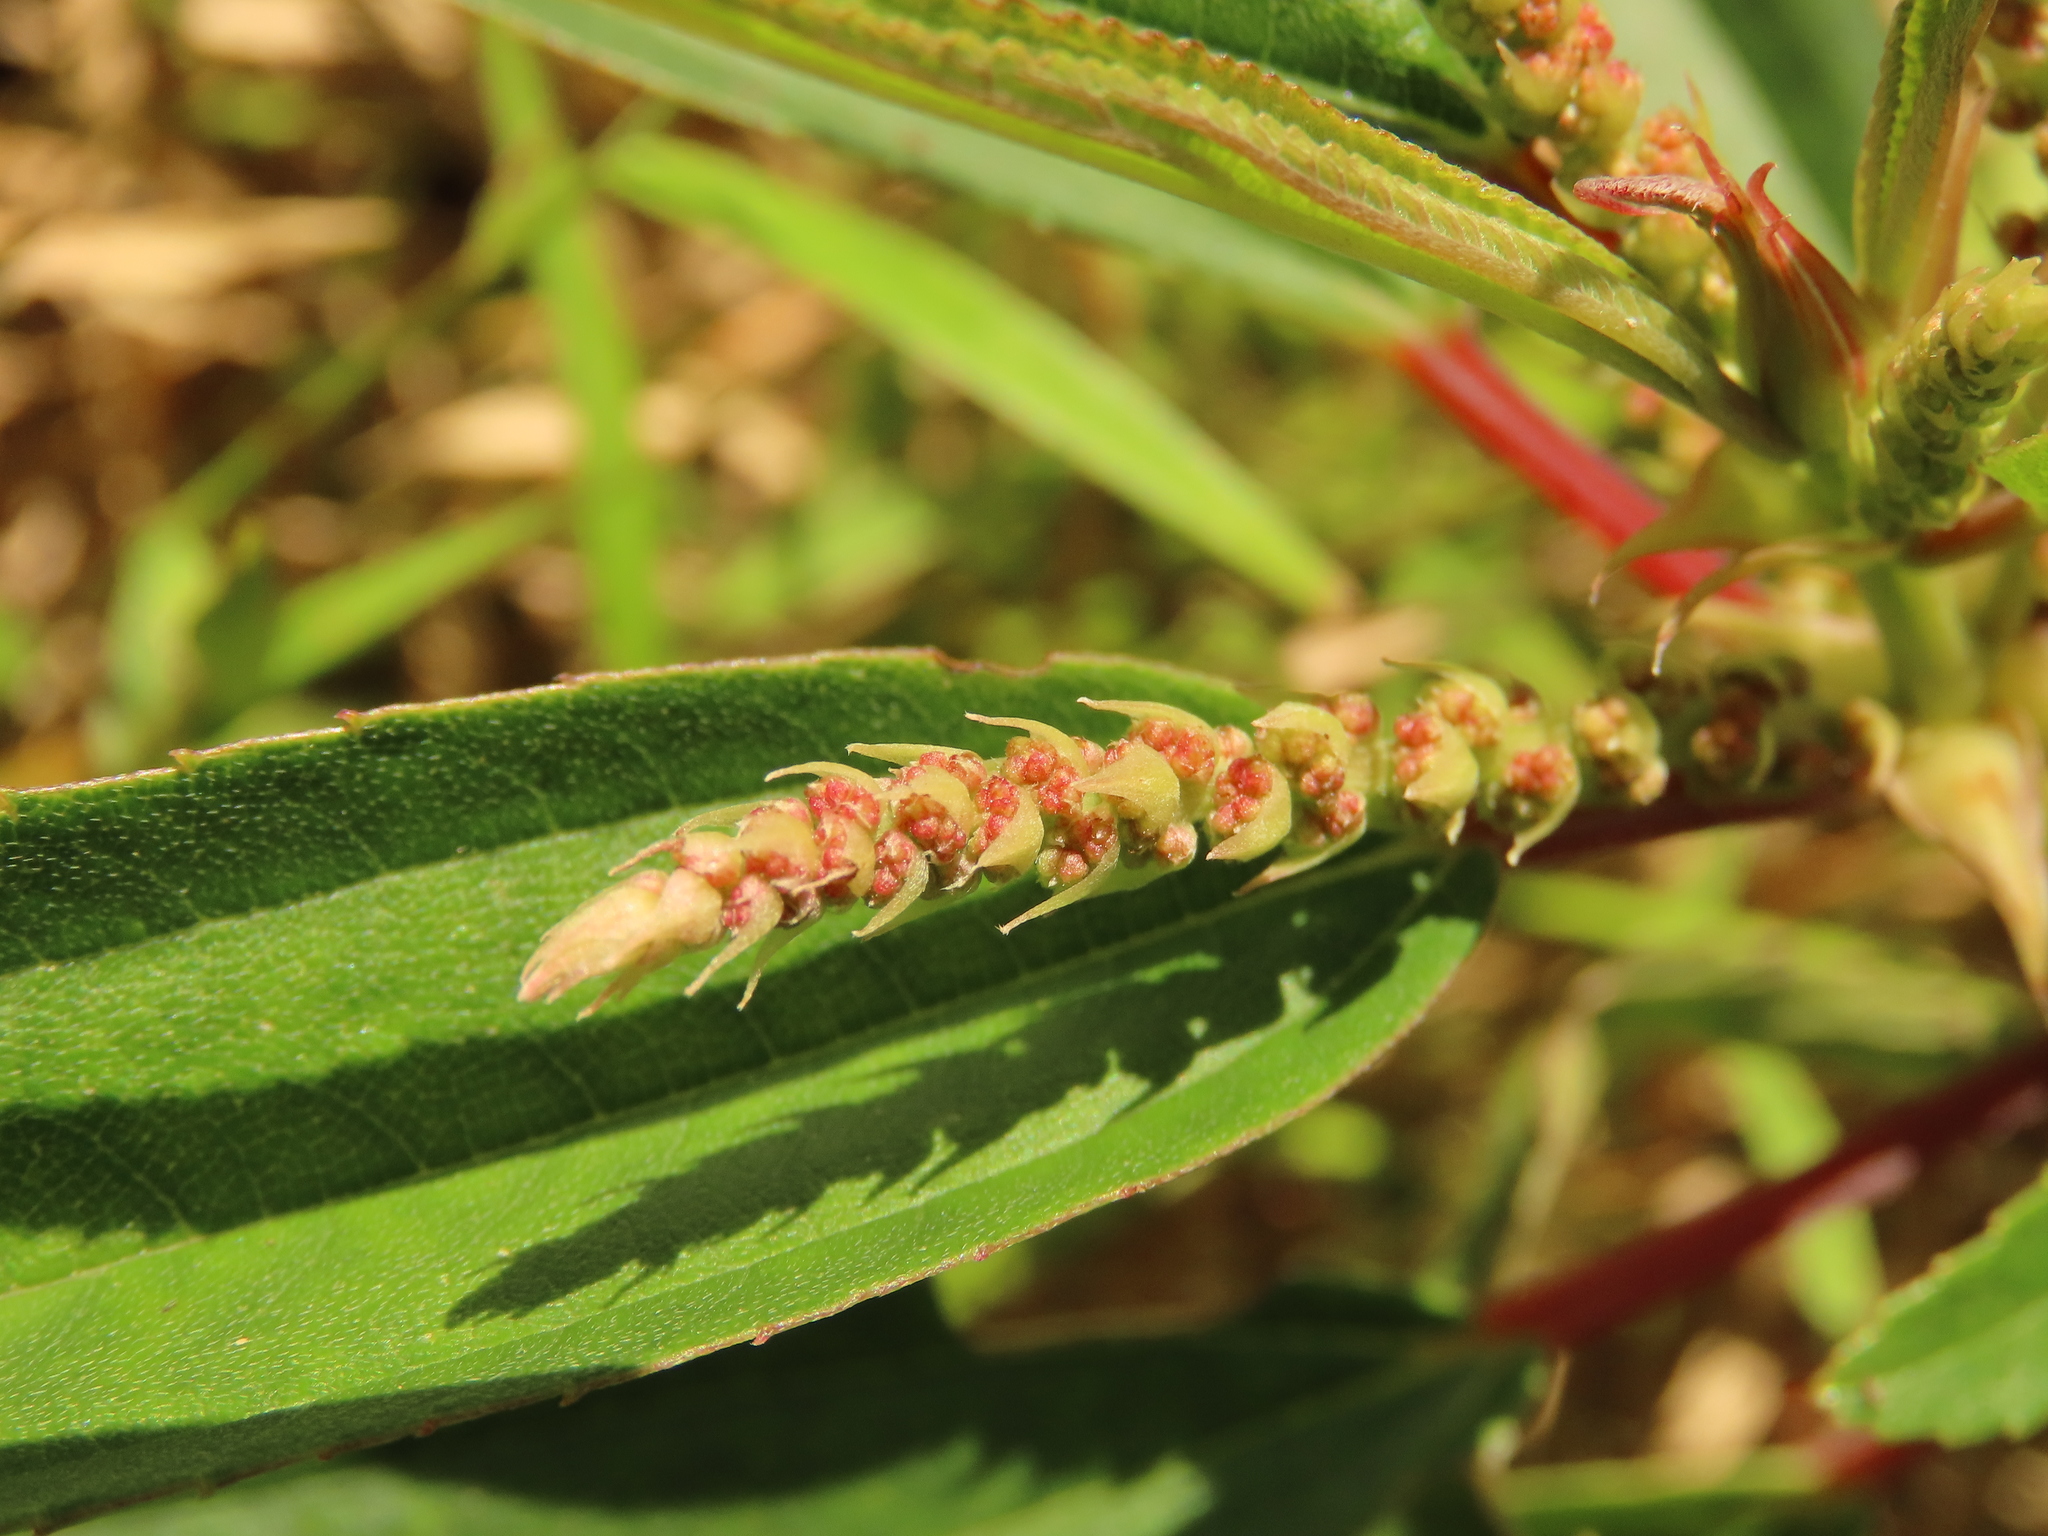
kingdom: Plantae
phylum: Tracheophyta
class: Magnoliopsida
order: Rosales
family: Urticaceae
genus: Boehmeria
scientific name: Boehmeria densiflora
